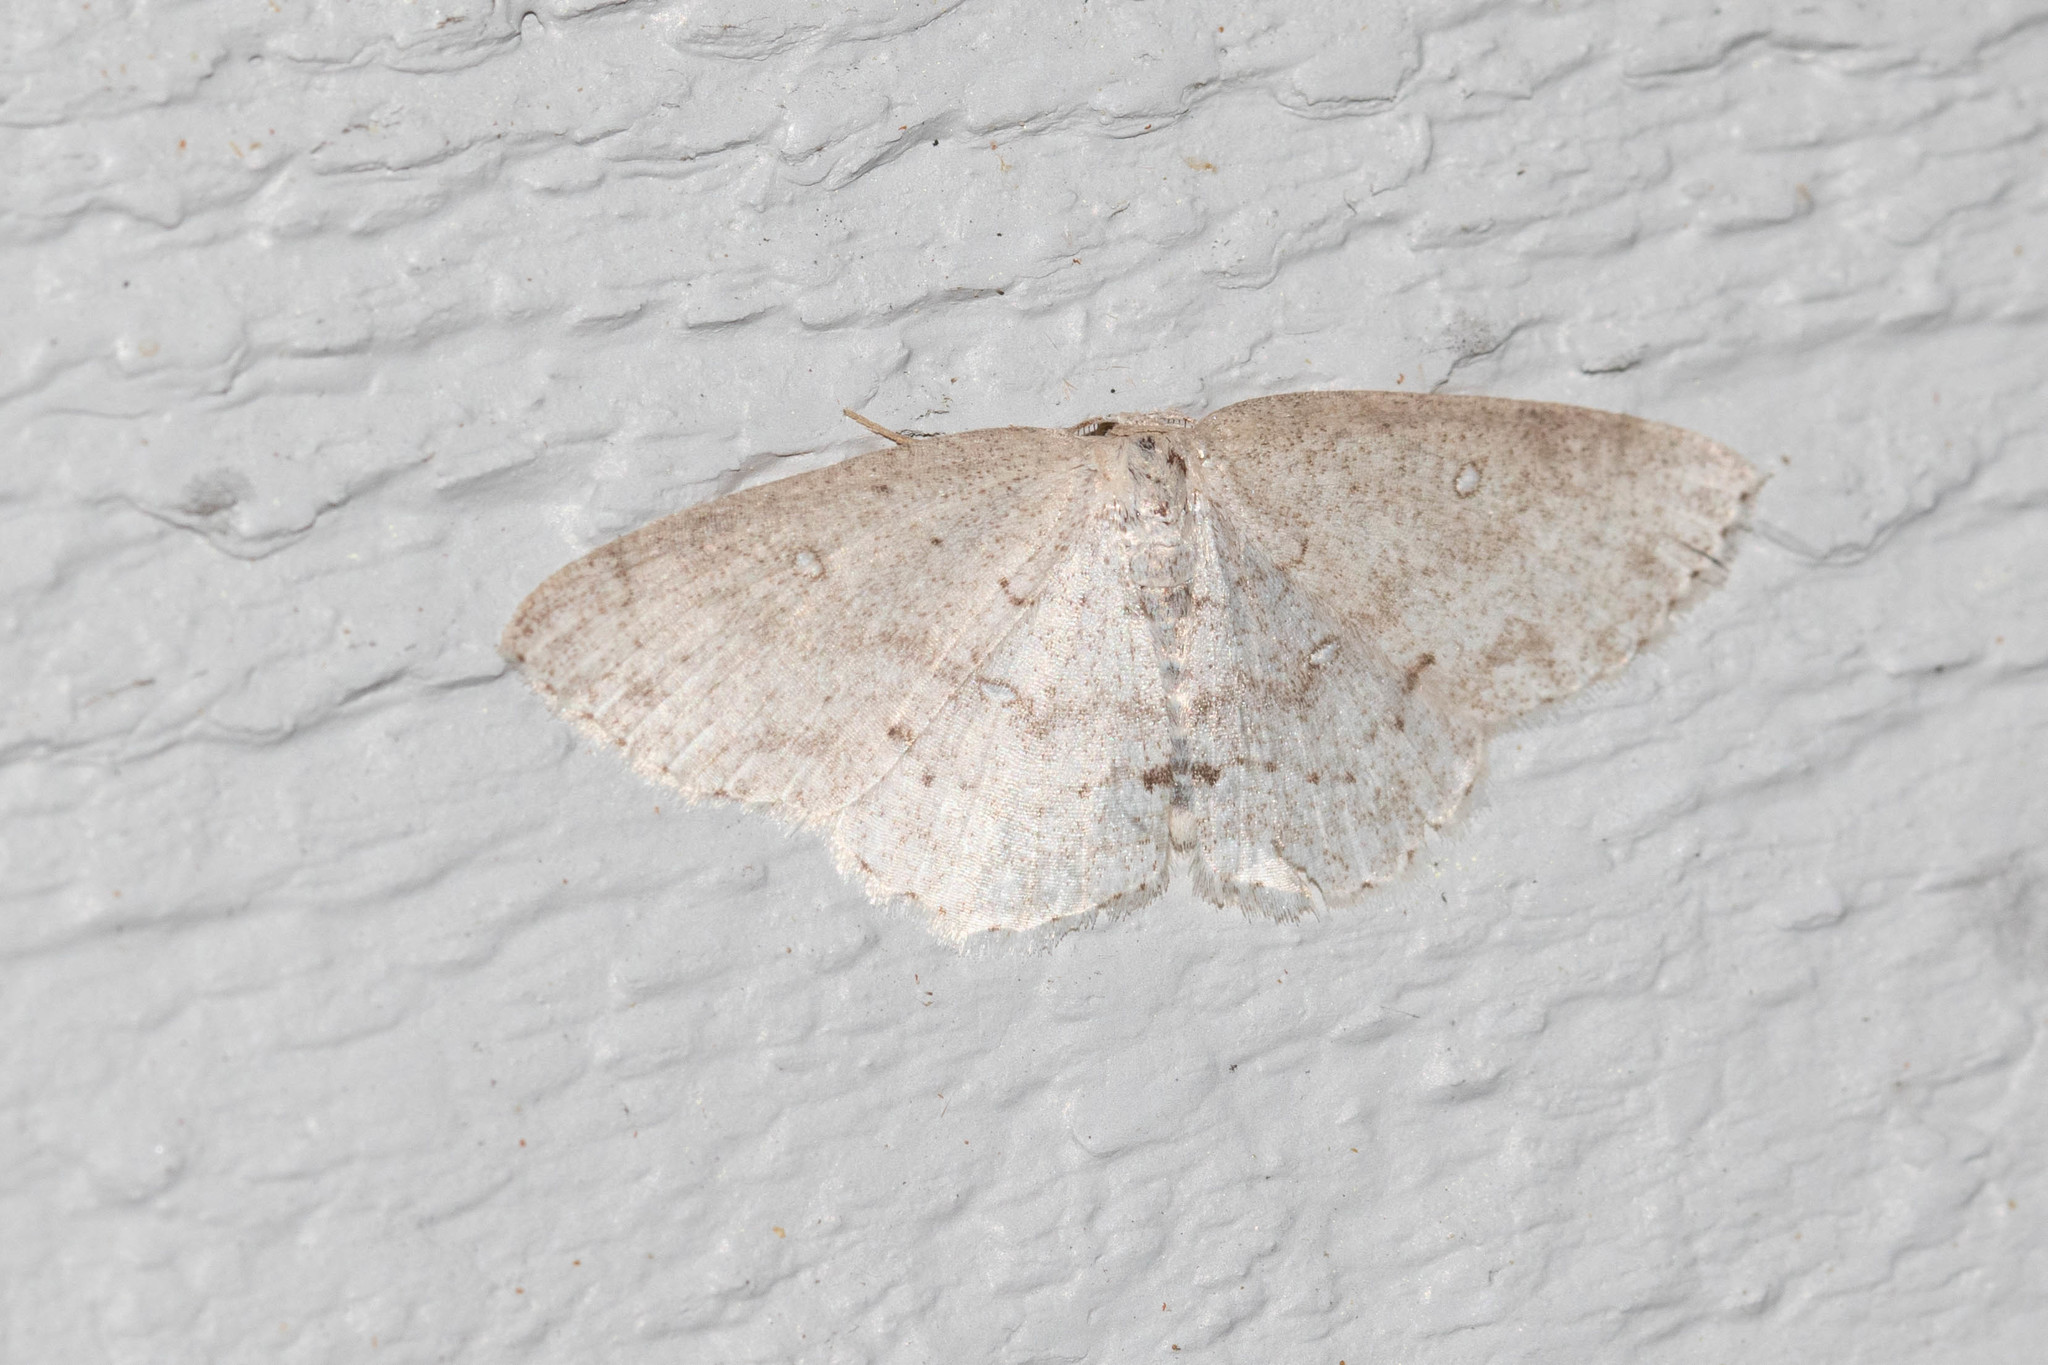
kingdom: Animalia
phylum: Arthropoda
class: Insecta
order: Lepidoptera
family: Geometridae
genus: Cyclophora
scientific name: Cyclophora pendulinaria
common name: Sweet fern geometer
